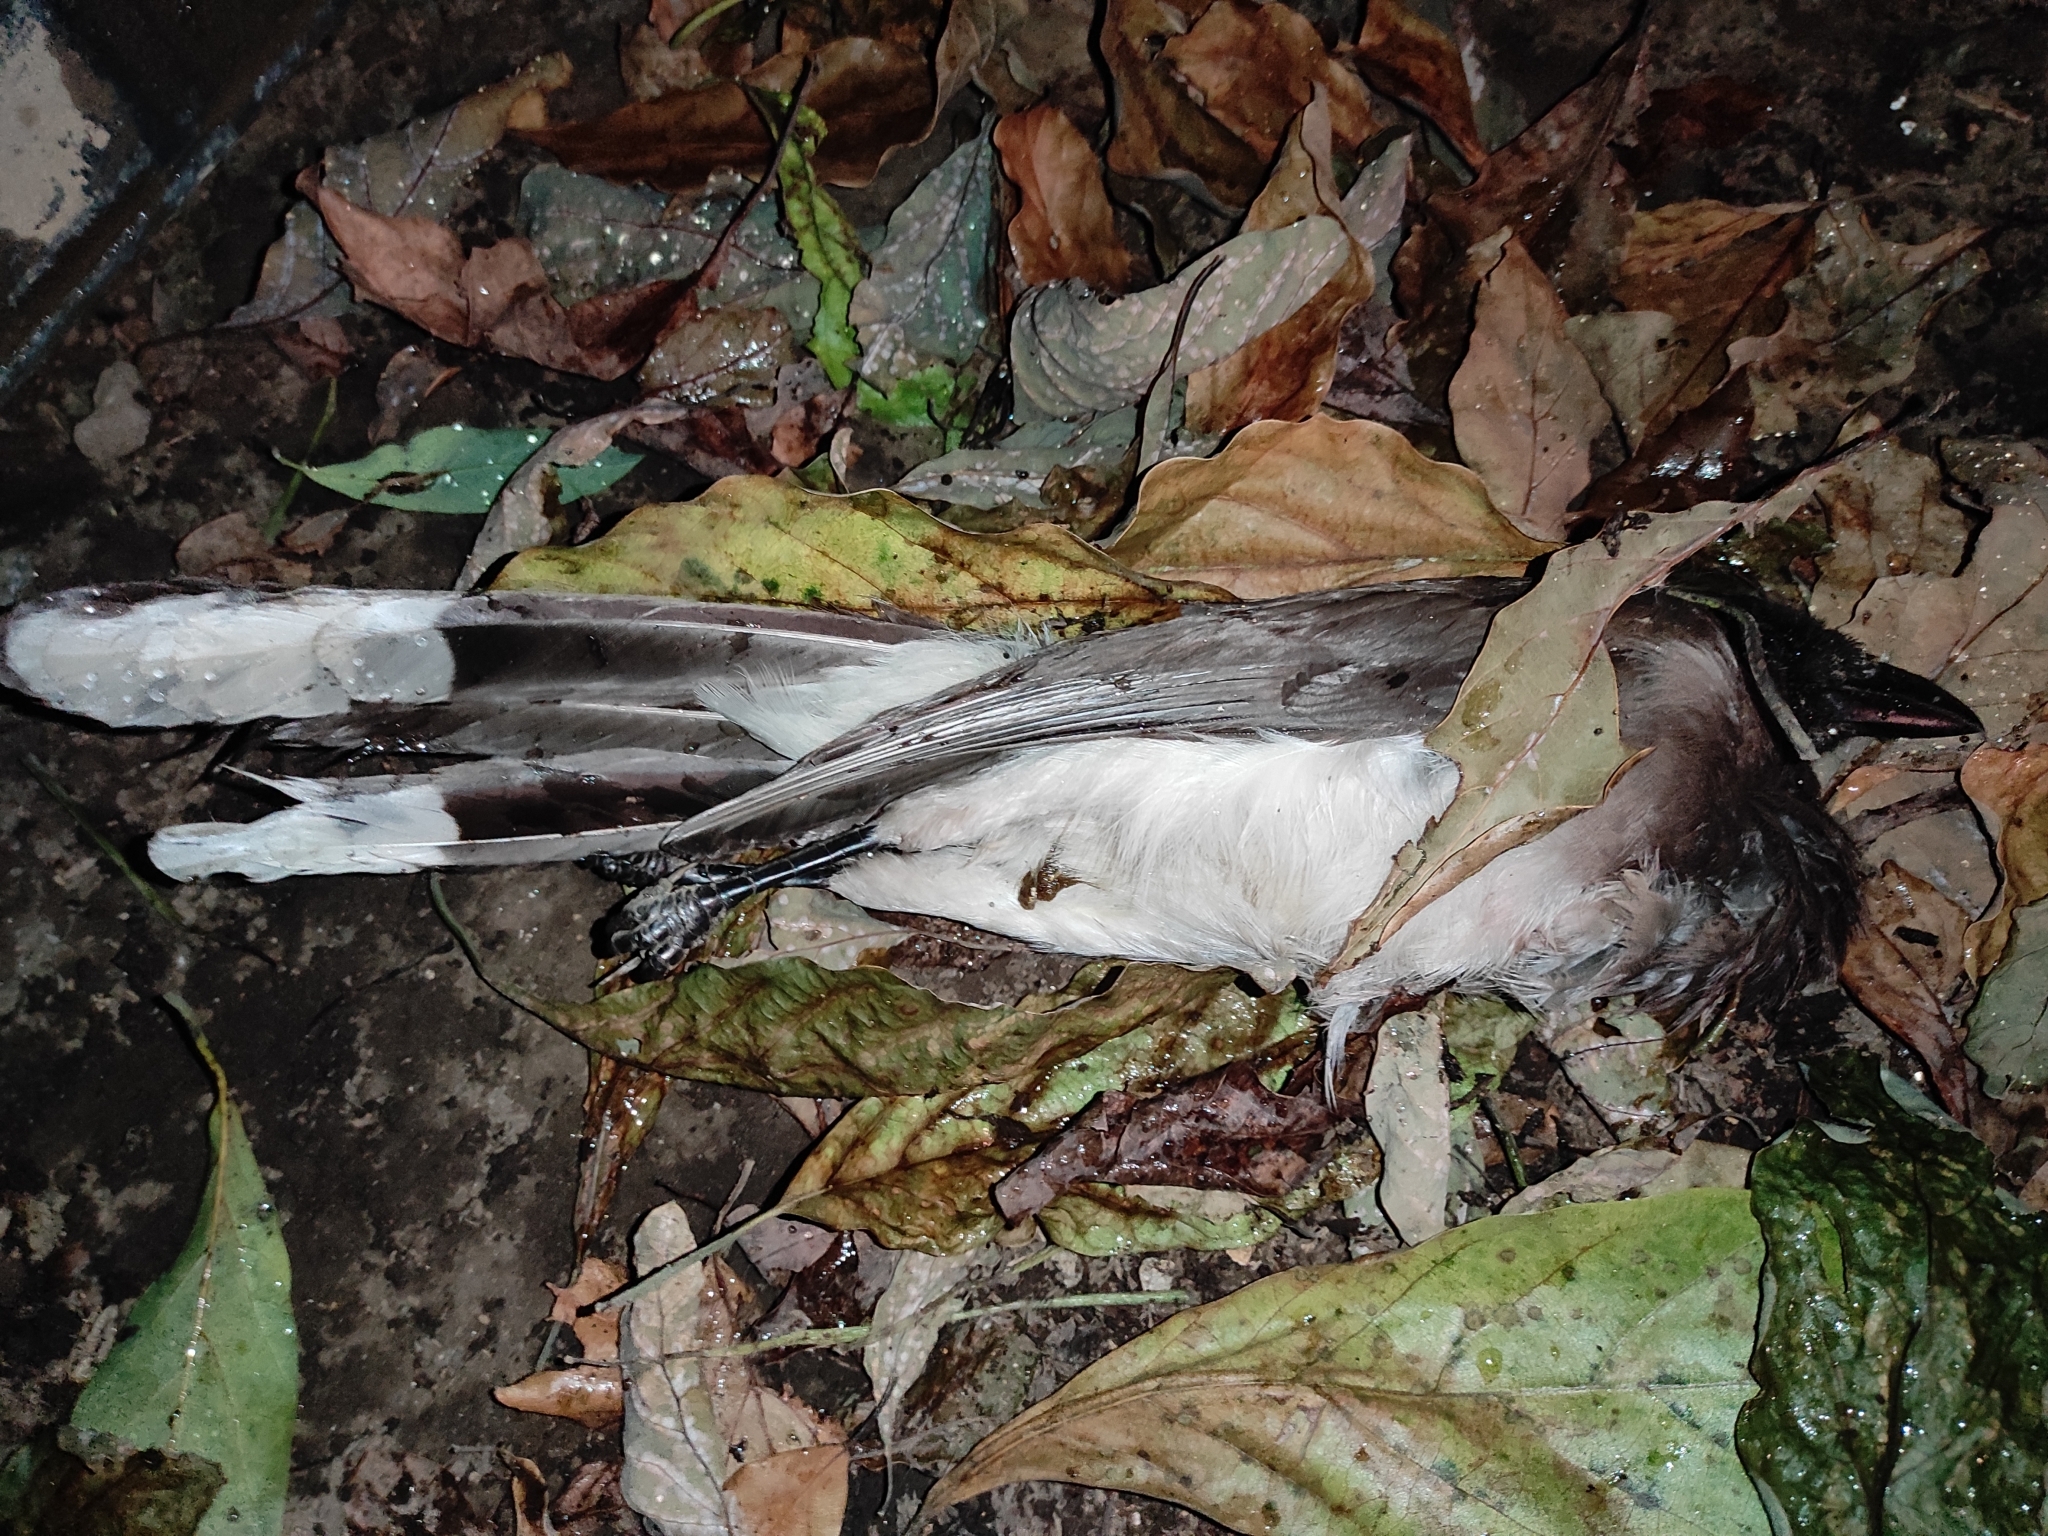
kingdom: Animalia
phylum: Chordata
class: Aves
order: Passeriformes
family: Corvidae
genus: Psilorhinus
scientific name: Psilorhinus morio
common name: Brown jay
